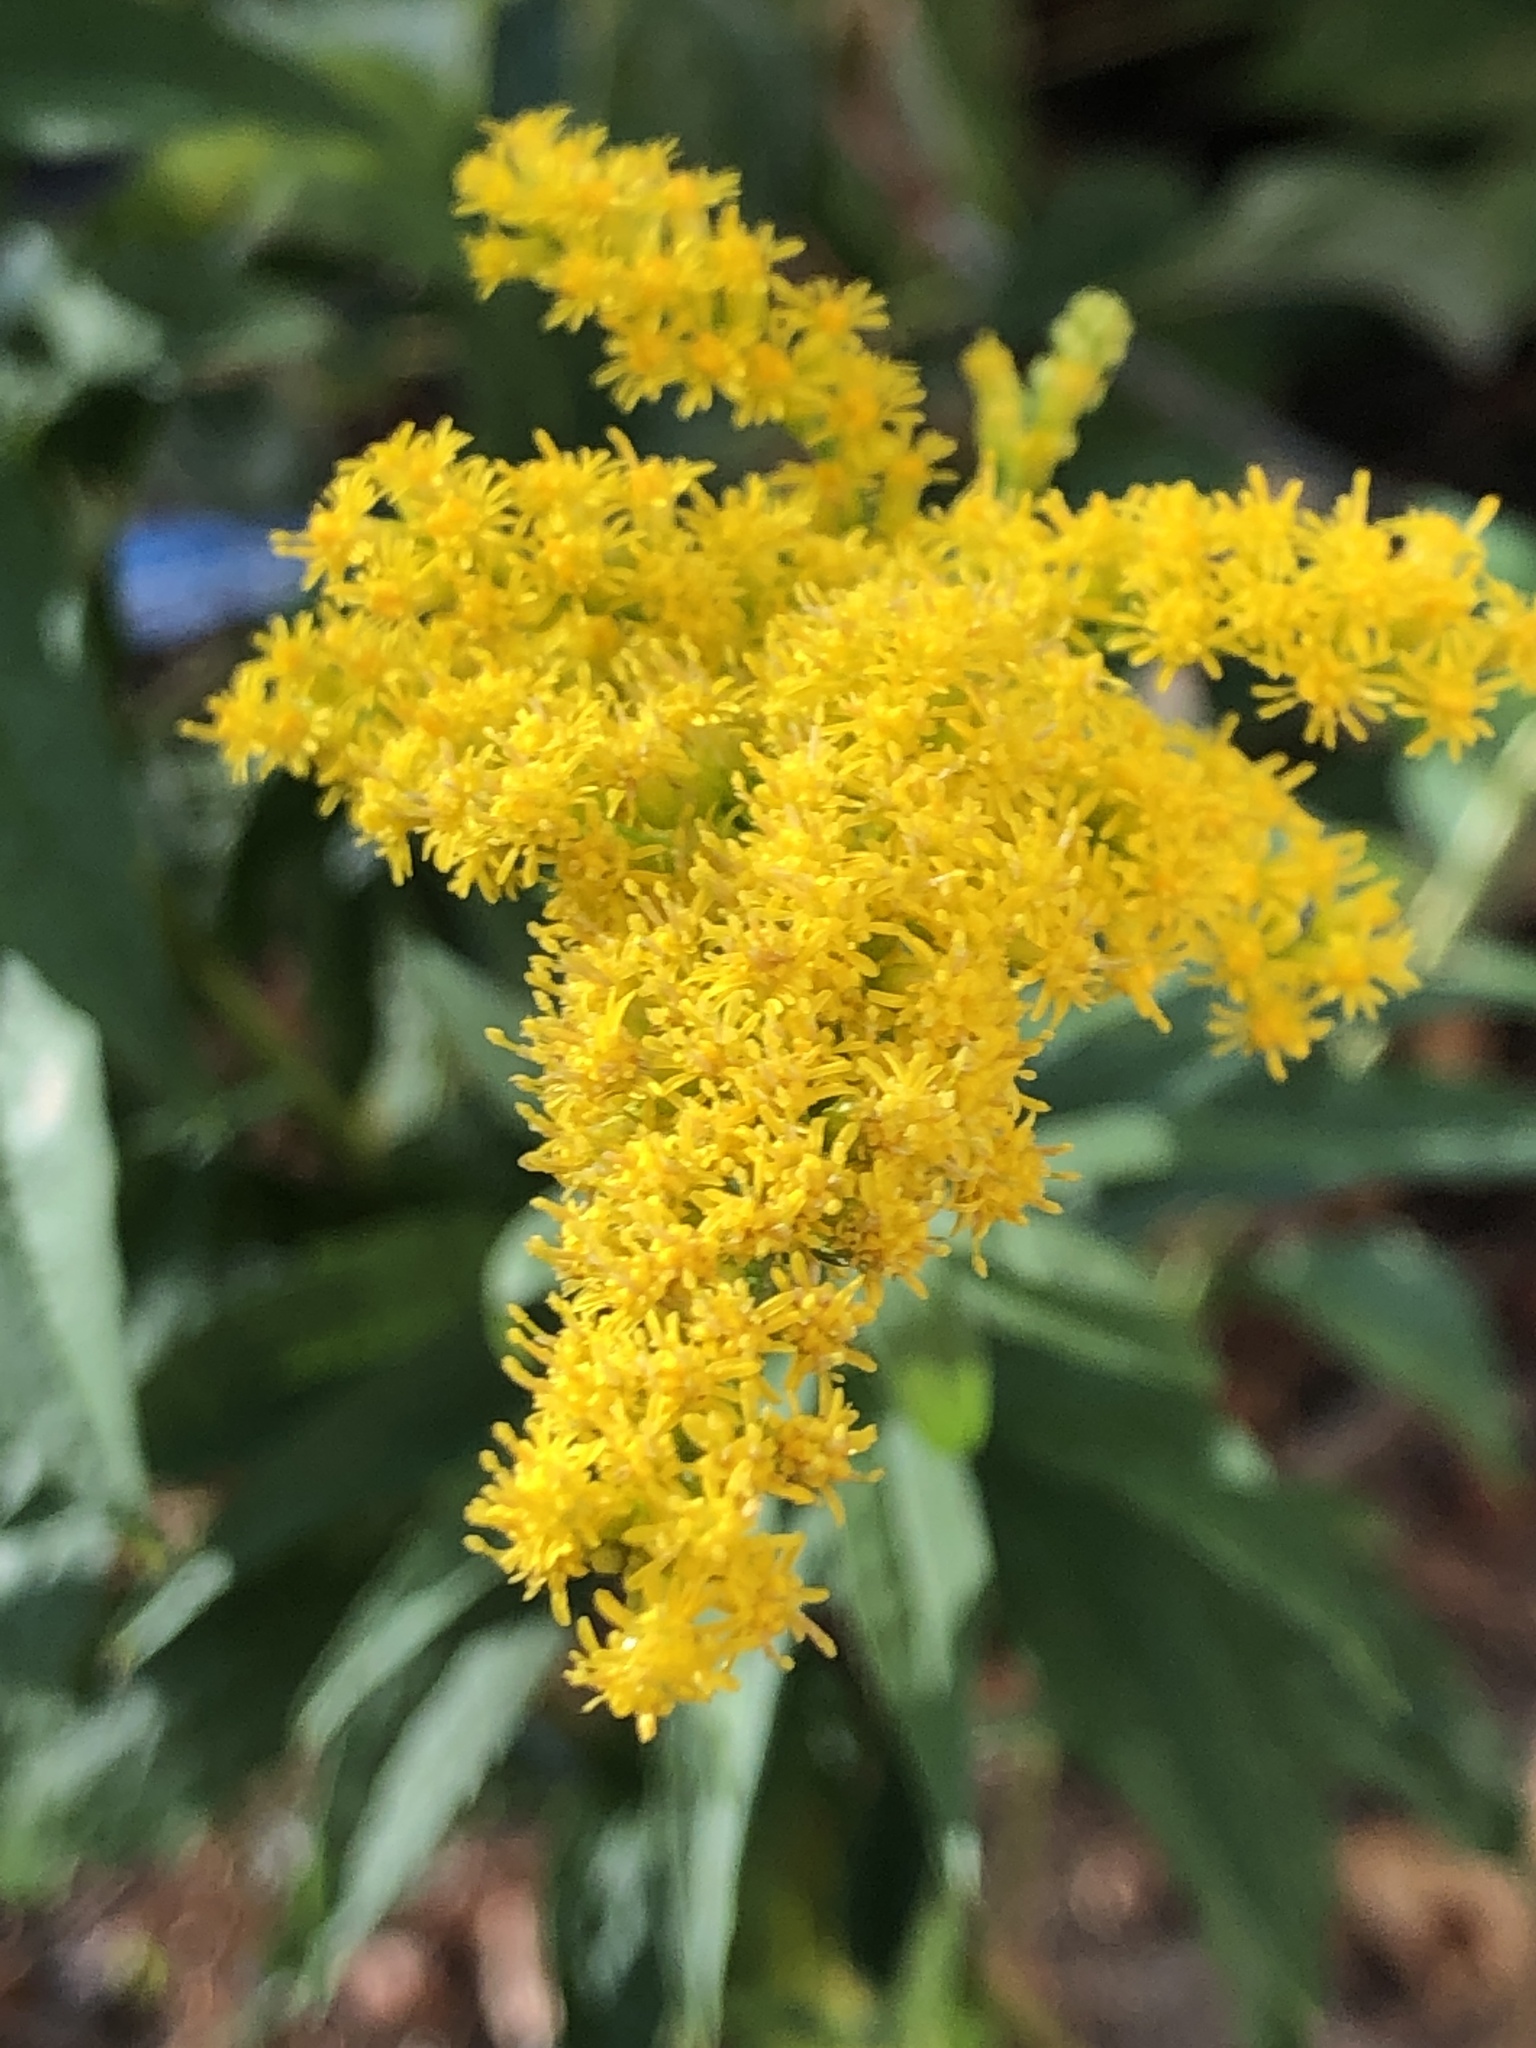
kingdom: Plantae
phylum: Tracheophyta
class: Magnoliopsida
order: Asterales
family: Asteraceae
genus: Solidago
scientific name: Solidago canadensis
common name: Canada goldenrod
